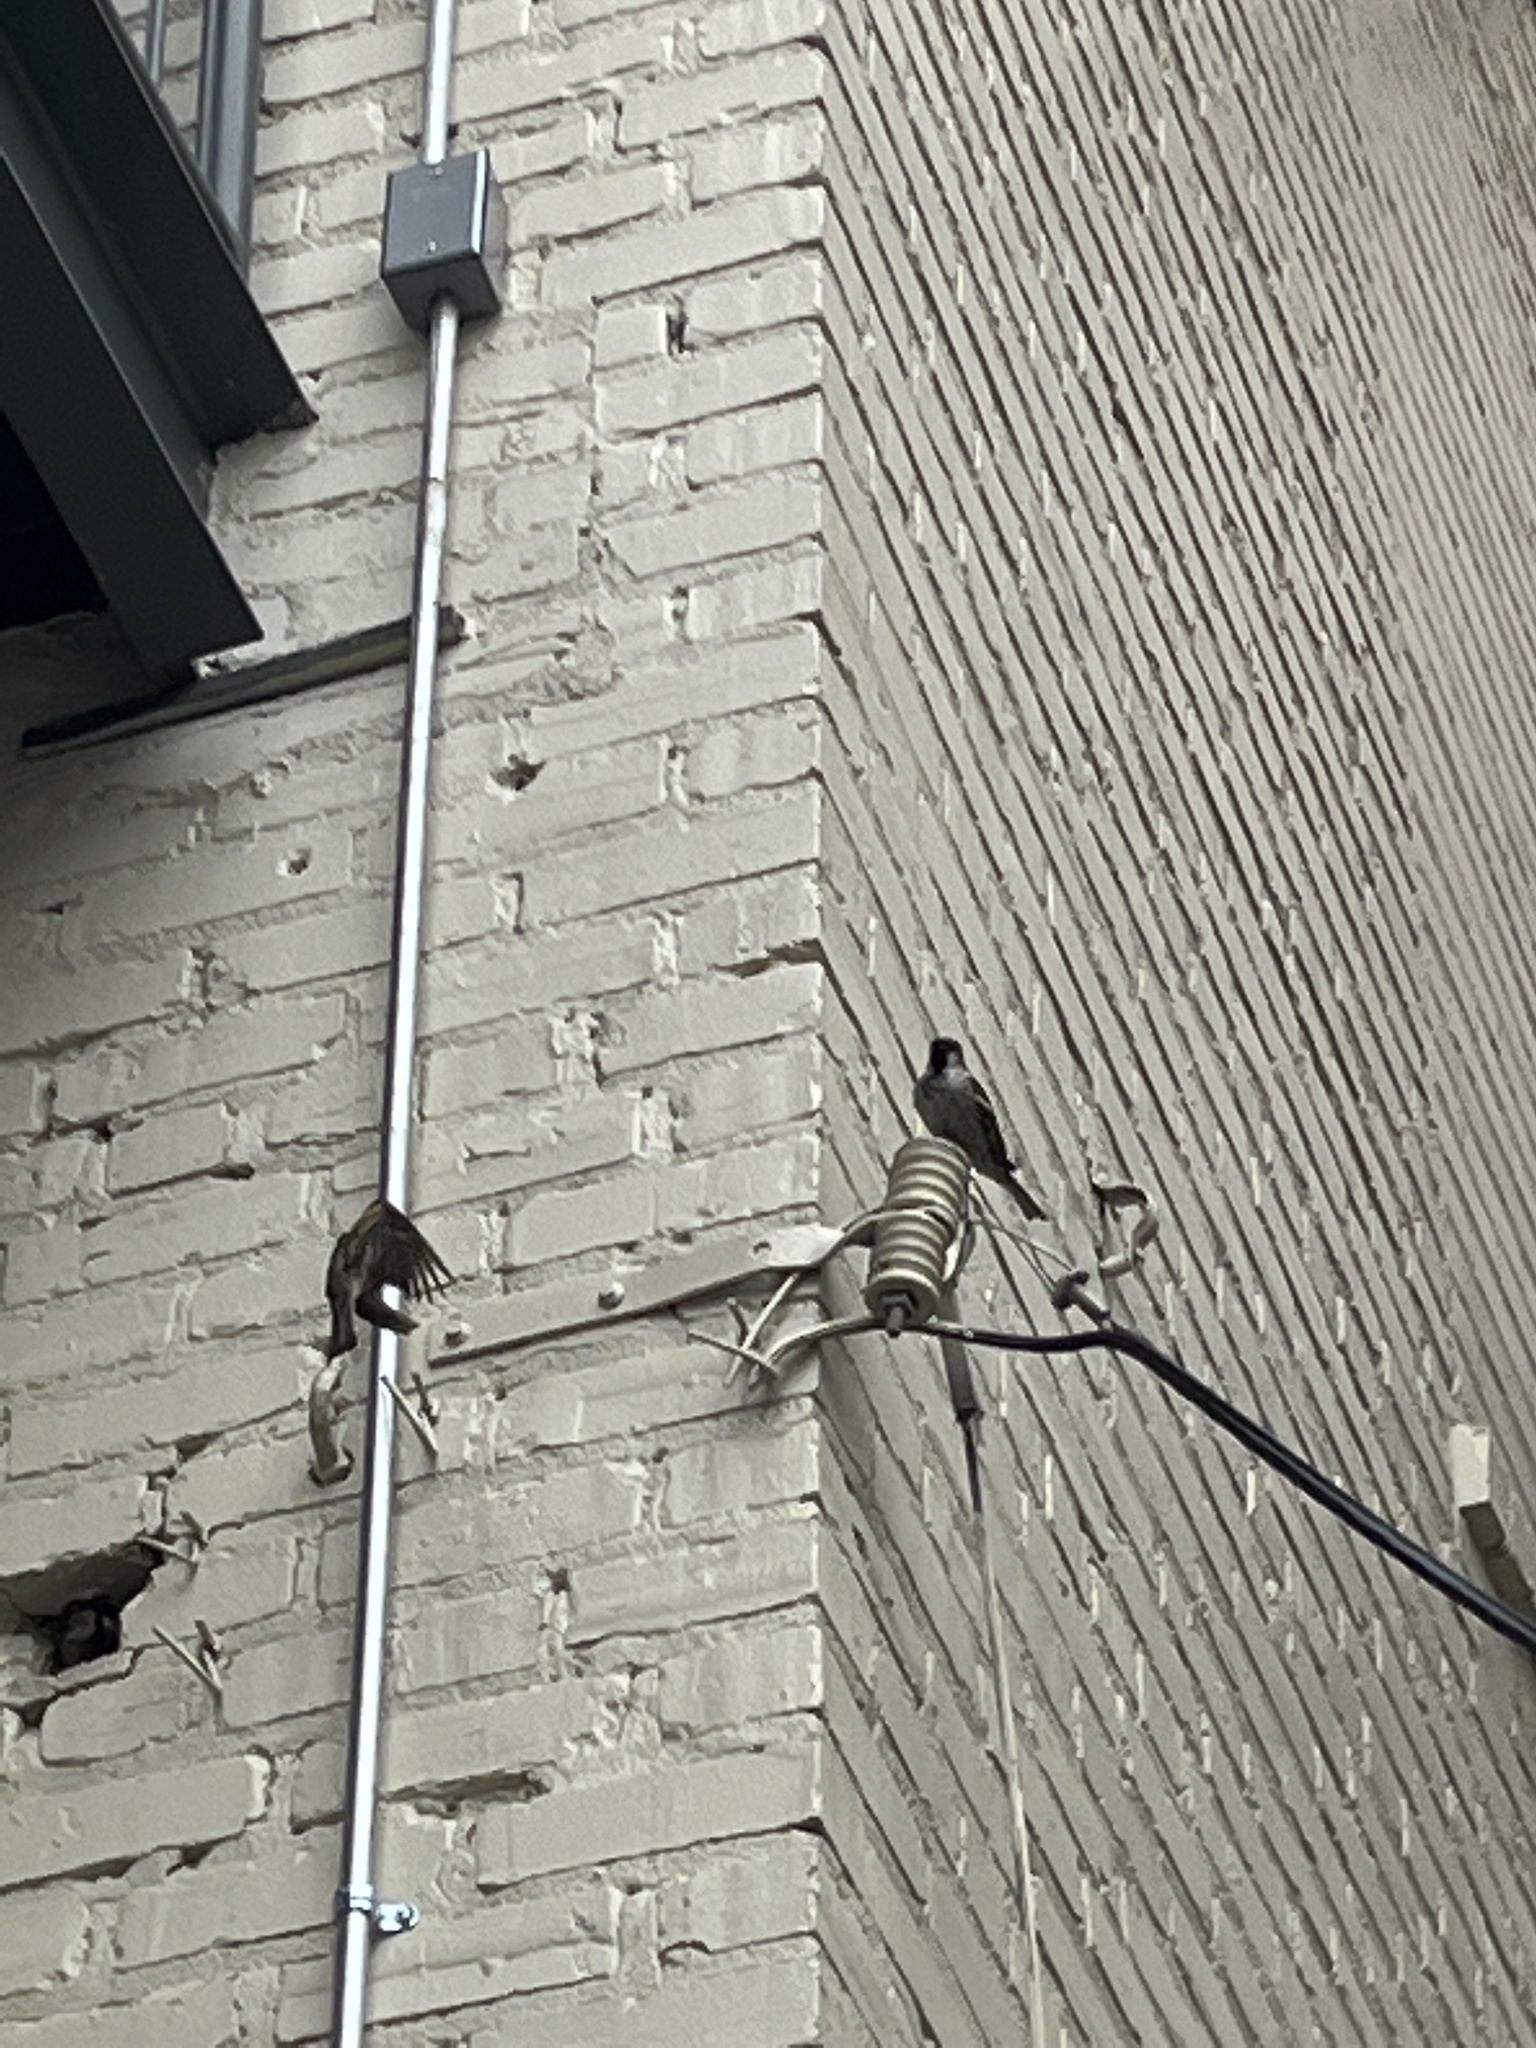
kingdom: Animalia
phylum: Chordata
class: Aves
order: Passeriformes
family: Passeridae
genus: Passer
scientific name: Passer domesticus
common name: House sparrow
